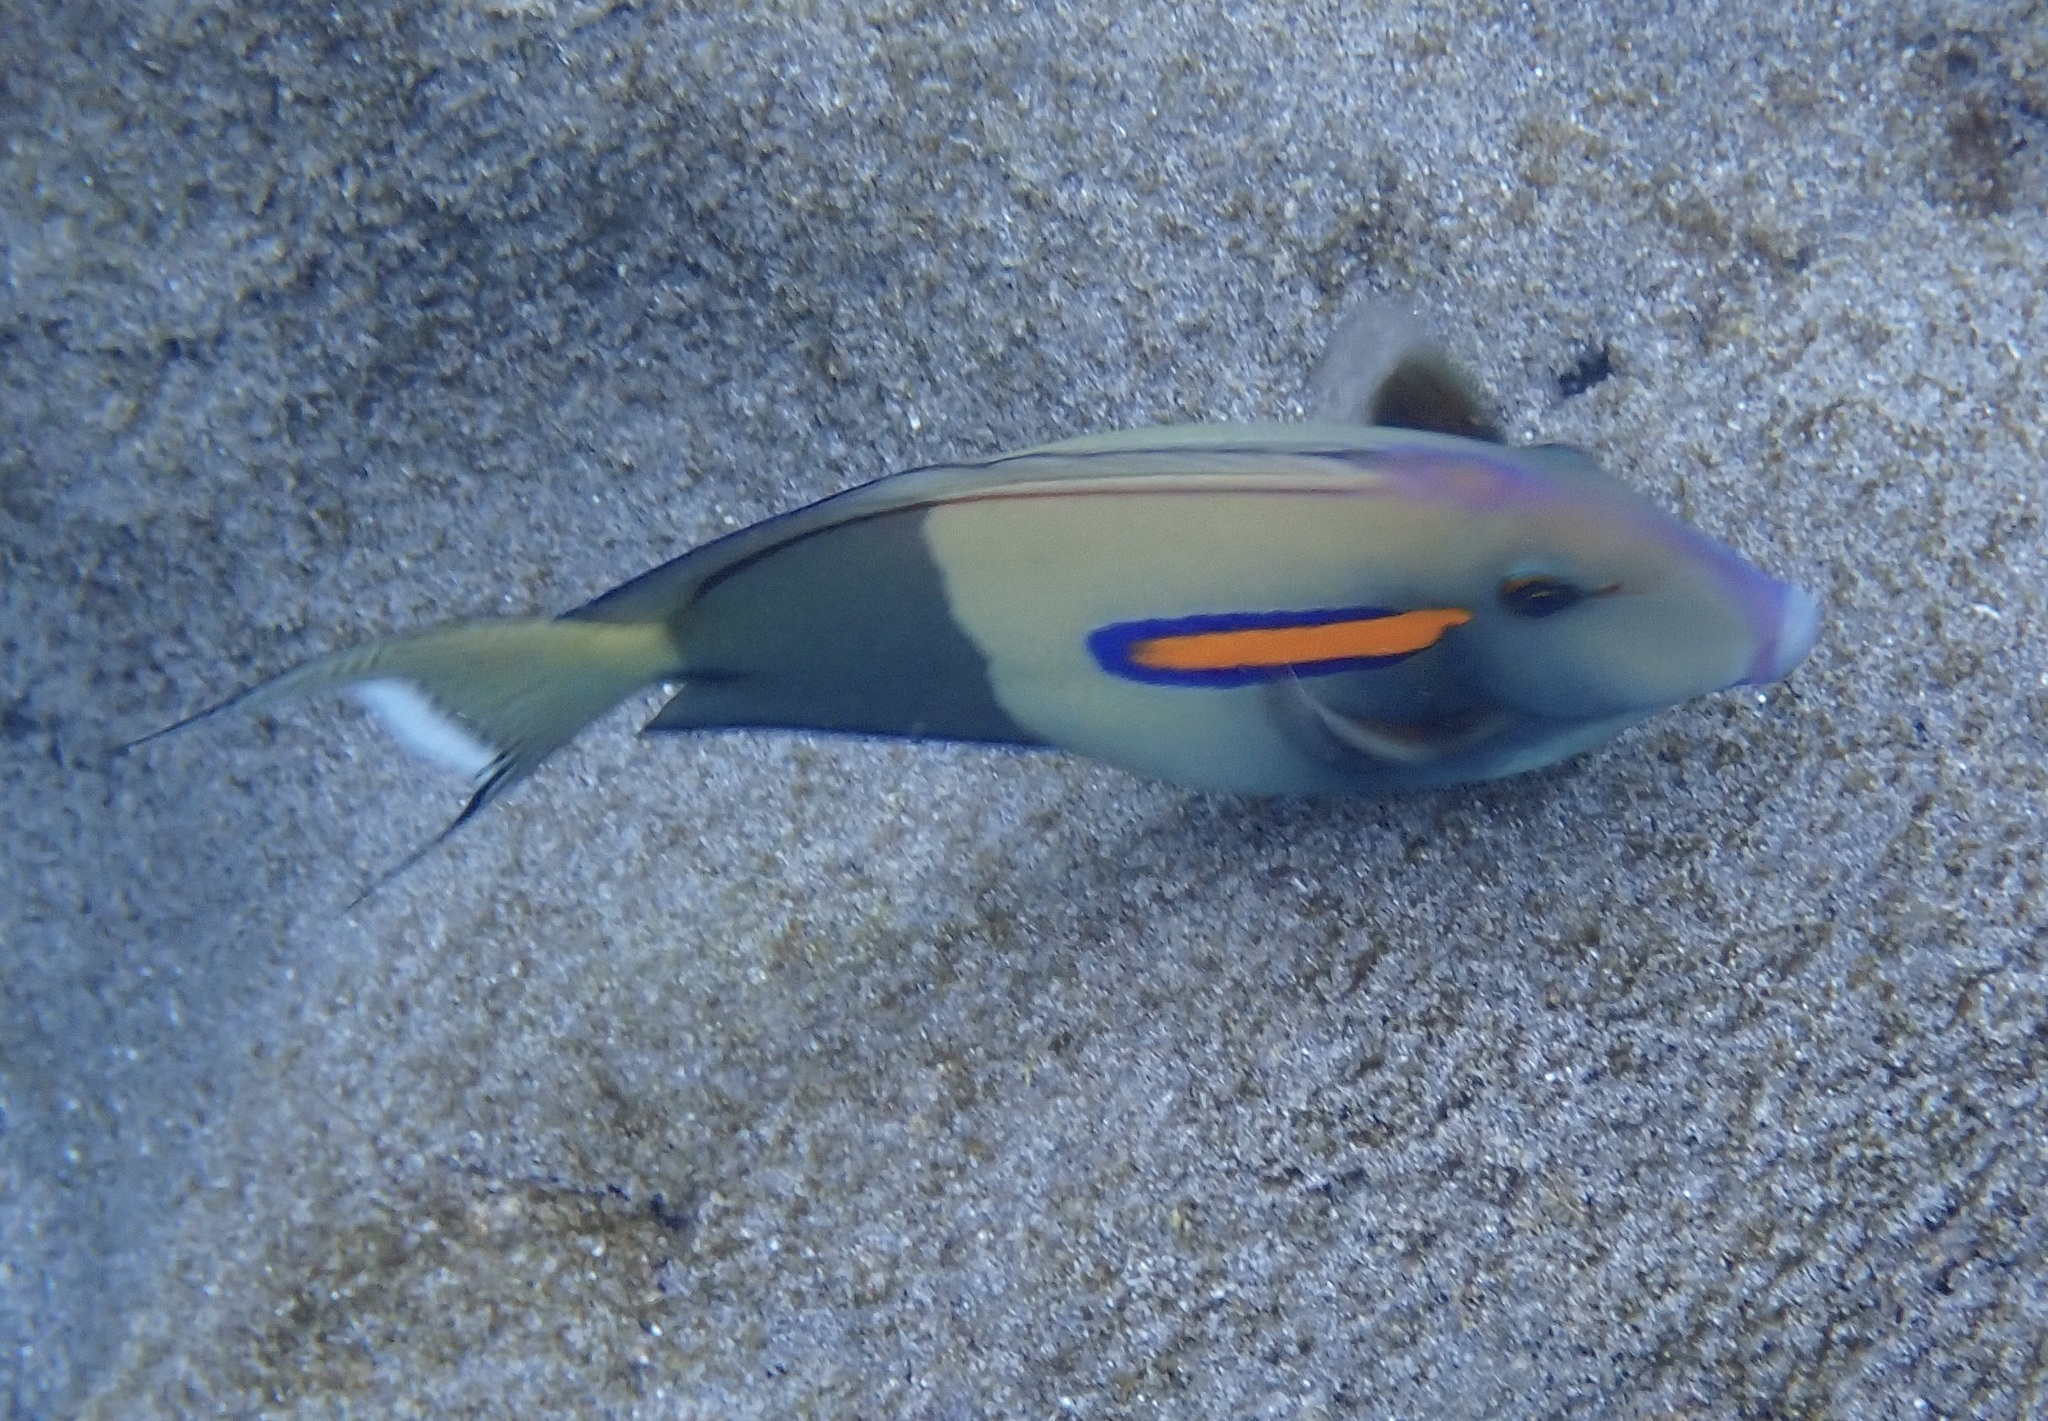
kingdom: Animalia
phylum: Chordata
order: Perciformes
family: Acanthuridae
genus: Acanthurus
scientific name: Acanthurus olivaceus
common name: Gendarme fish
